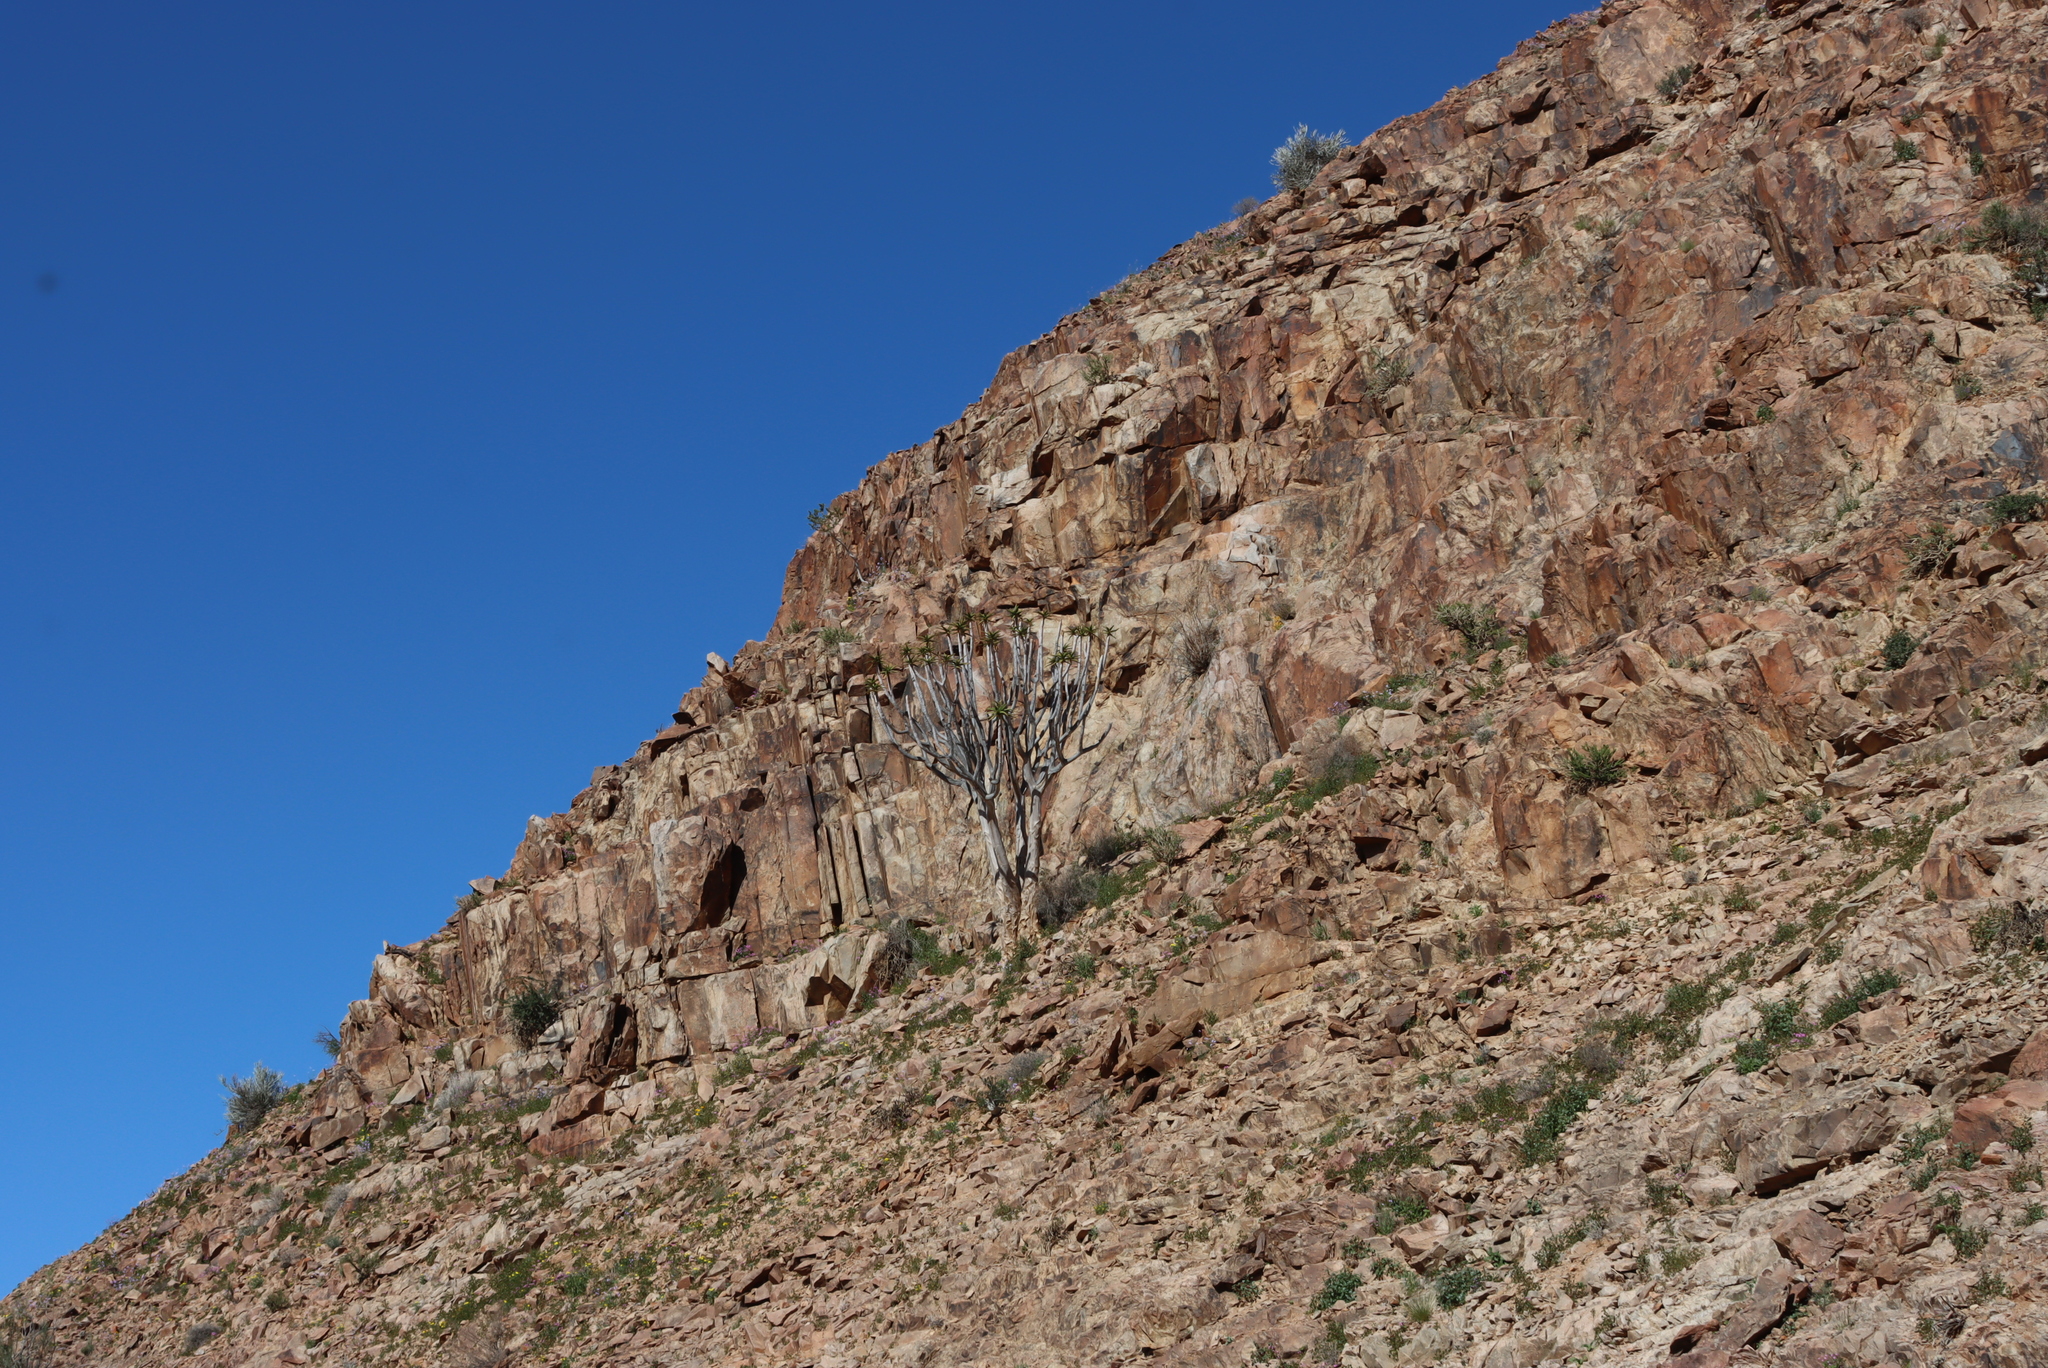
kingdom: Plantae
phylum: Tracheophyta
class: Liliopsida
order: Asparagales
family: Asphodelaceae
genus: Aloidendron
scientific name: Aloidendron dichotomum
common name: Quiver tree
